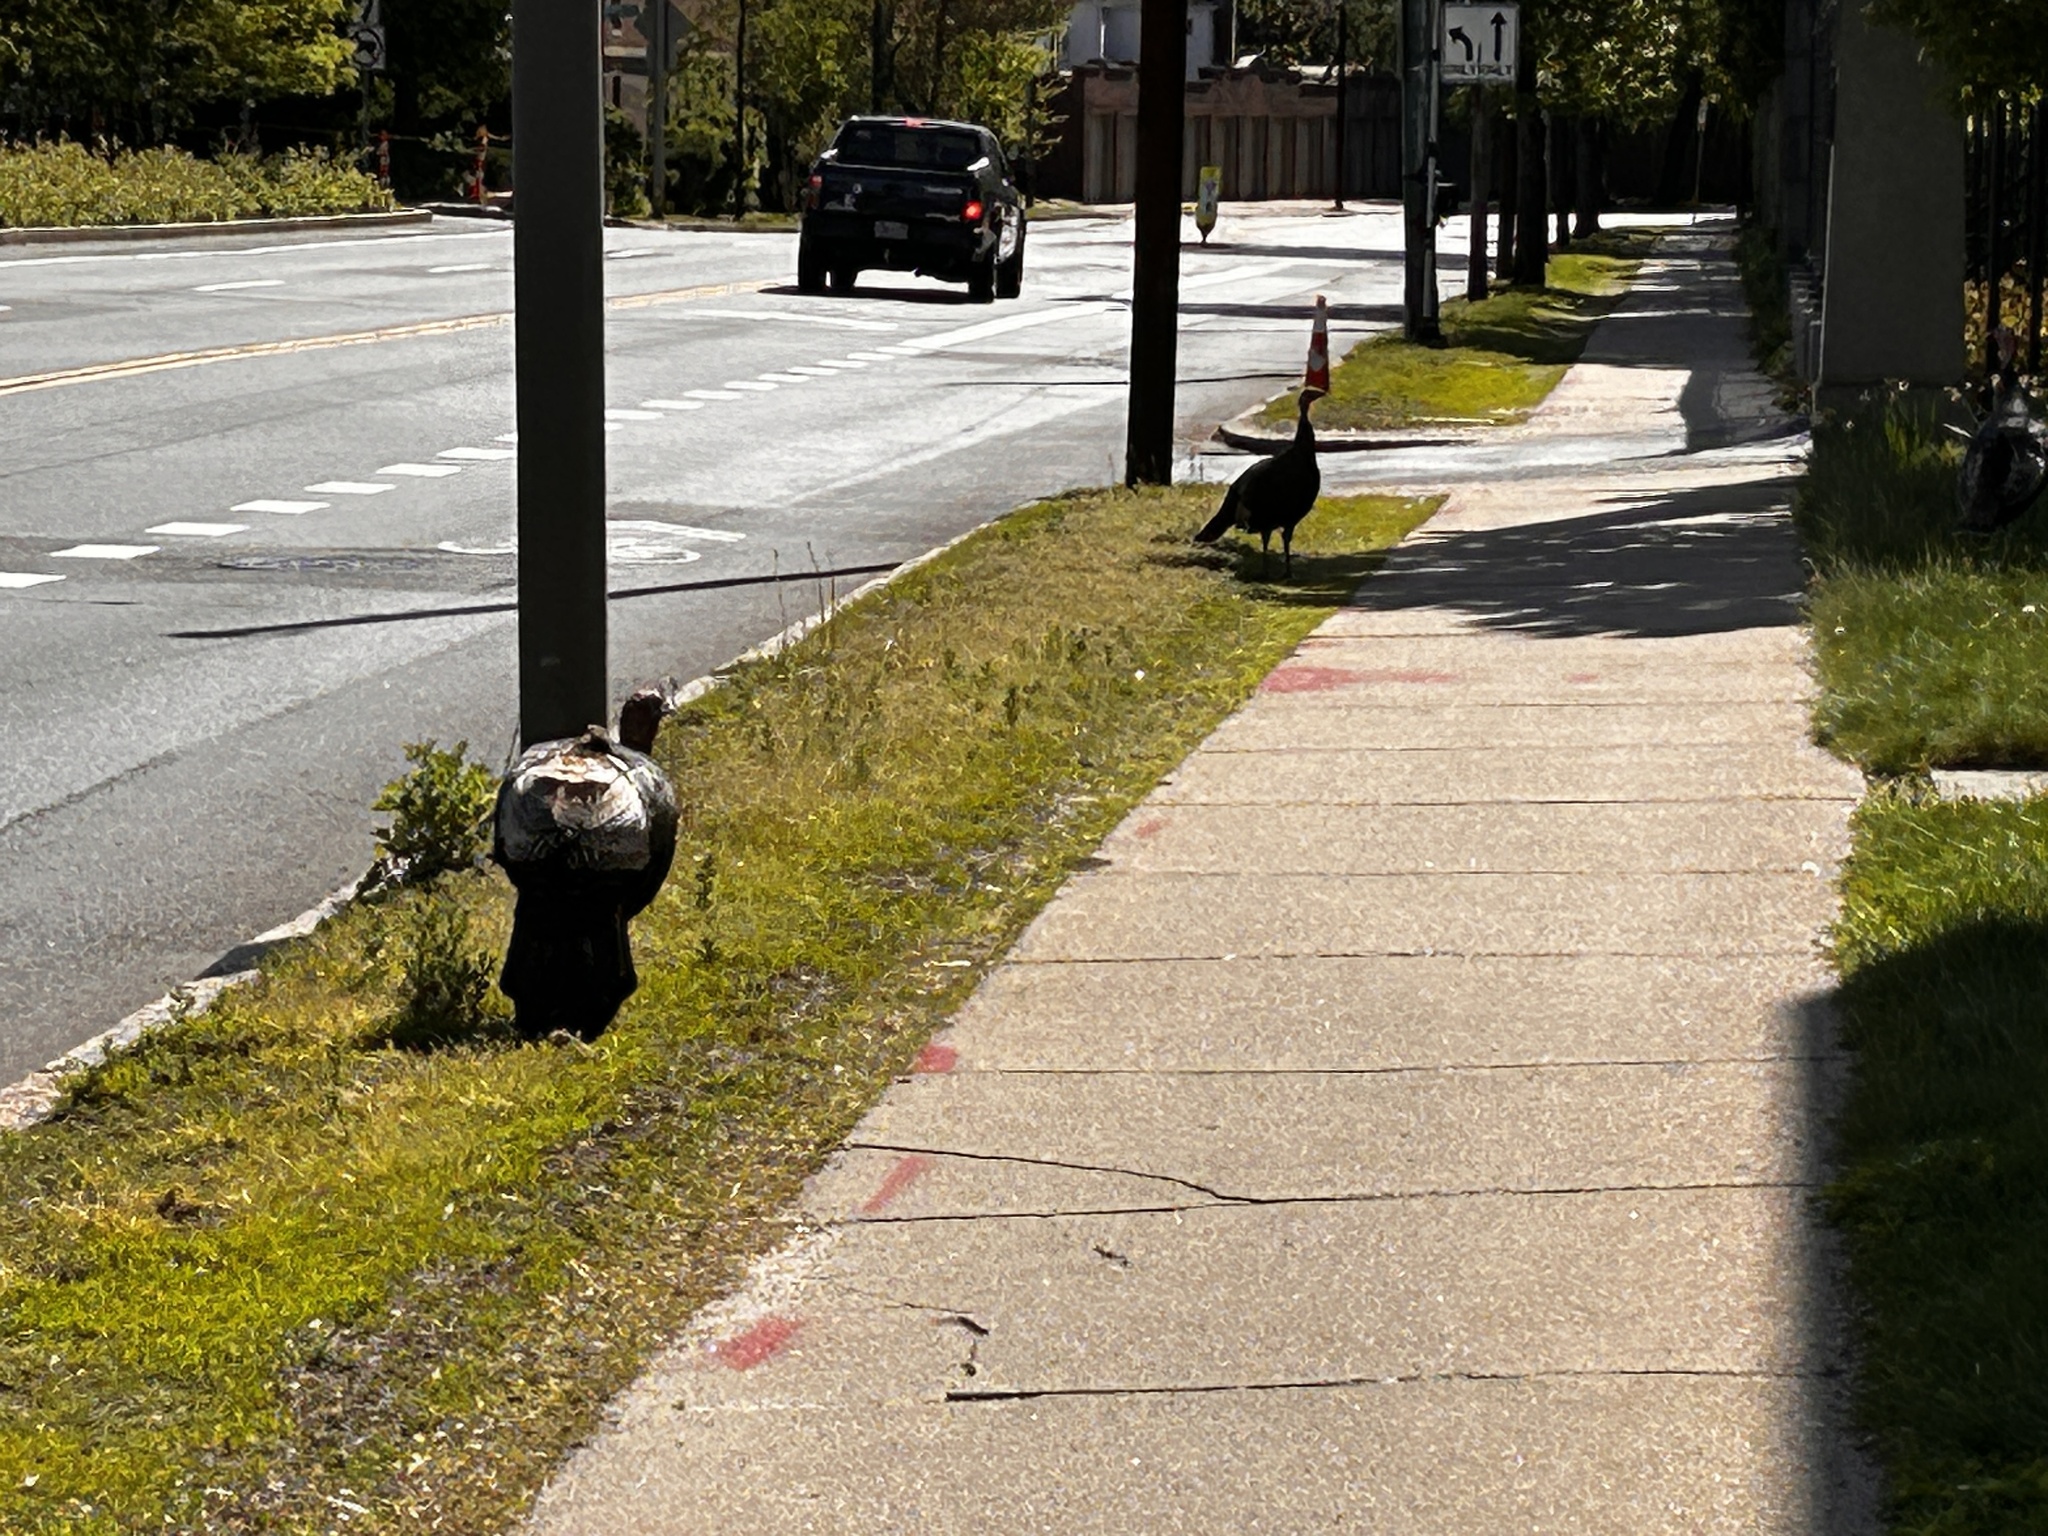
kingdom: Animalia
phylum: Chordata
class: Aves
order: Galliformes
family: Phasianidae
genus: Meleagris
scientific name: Meleagris gallopavo
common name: Wild turkey
